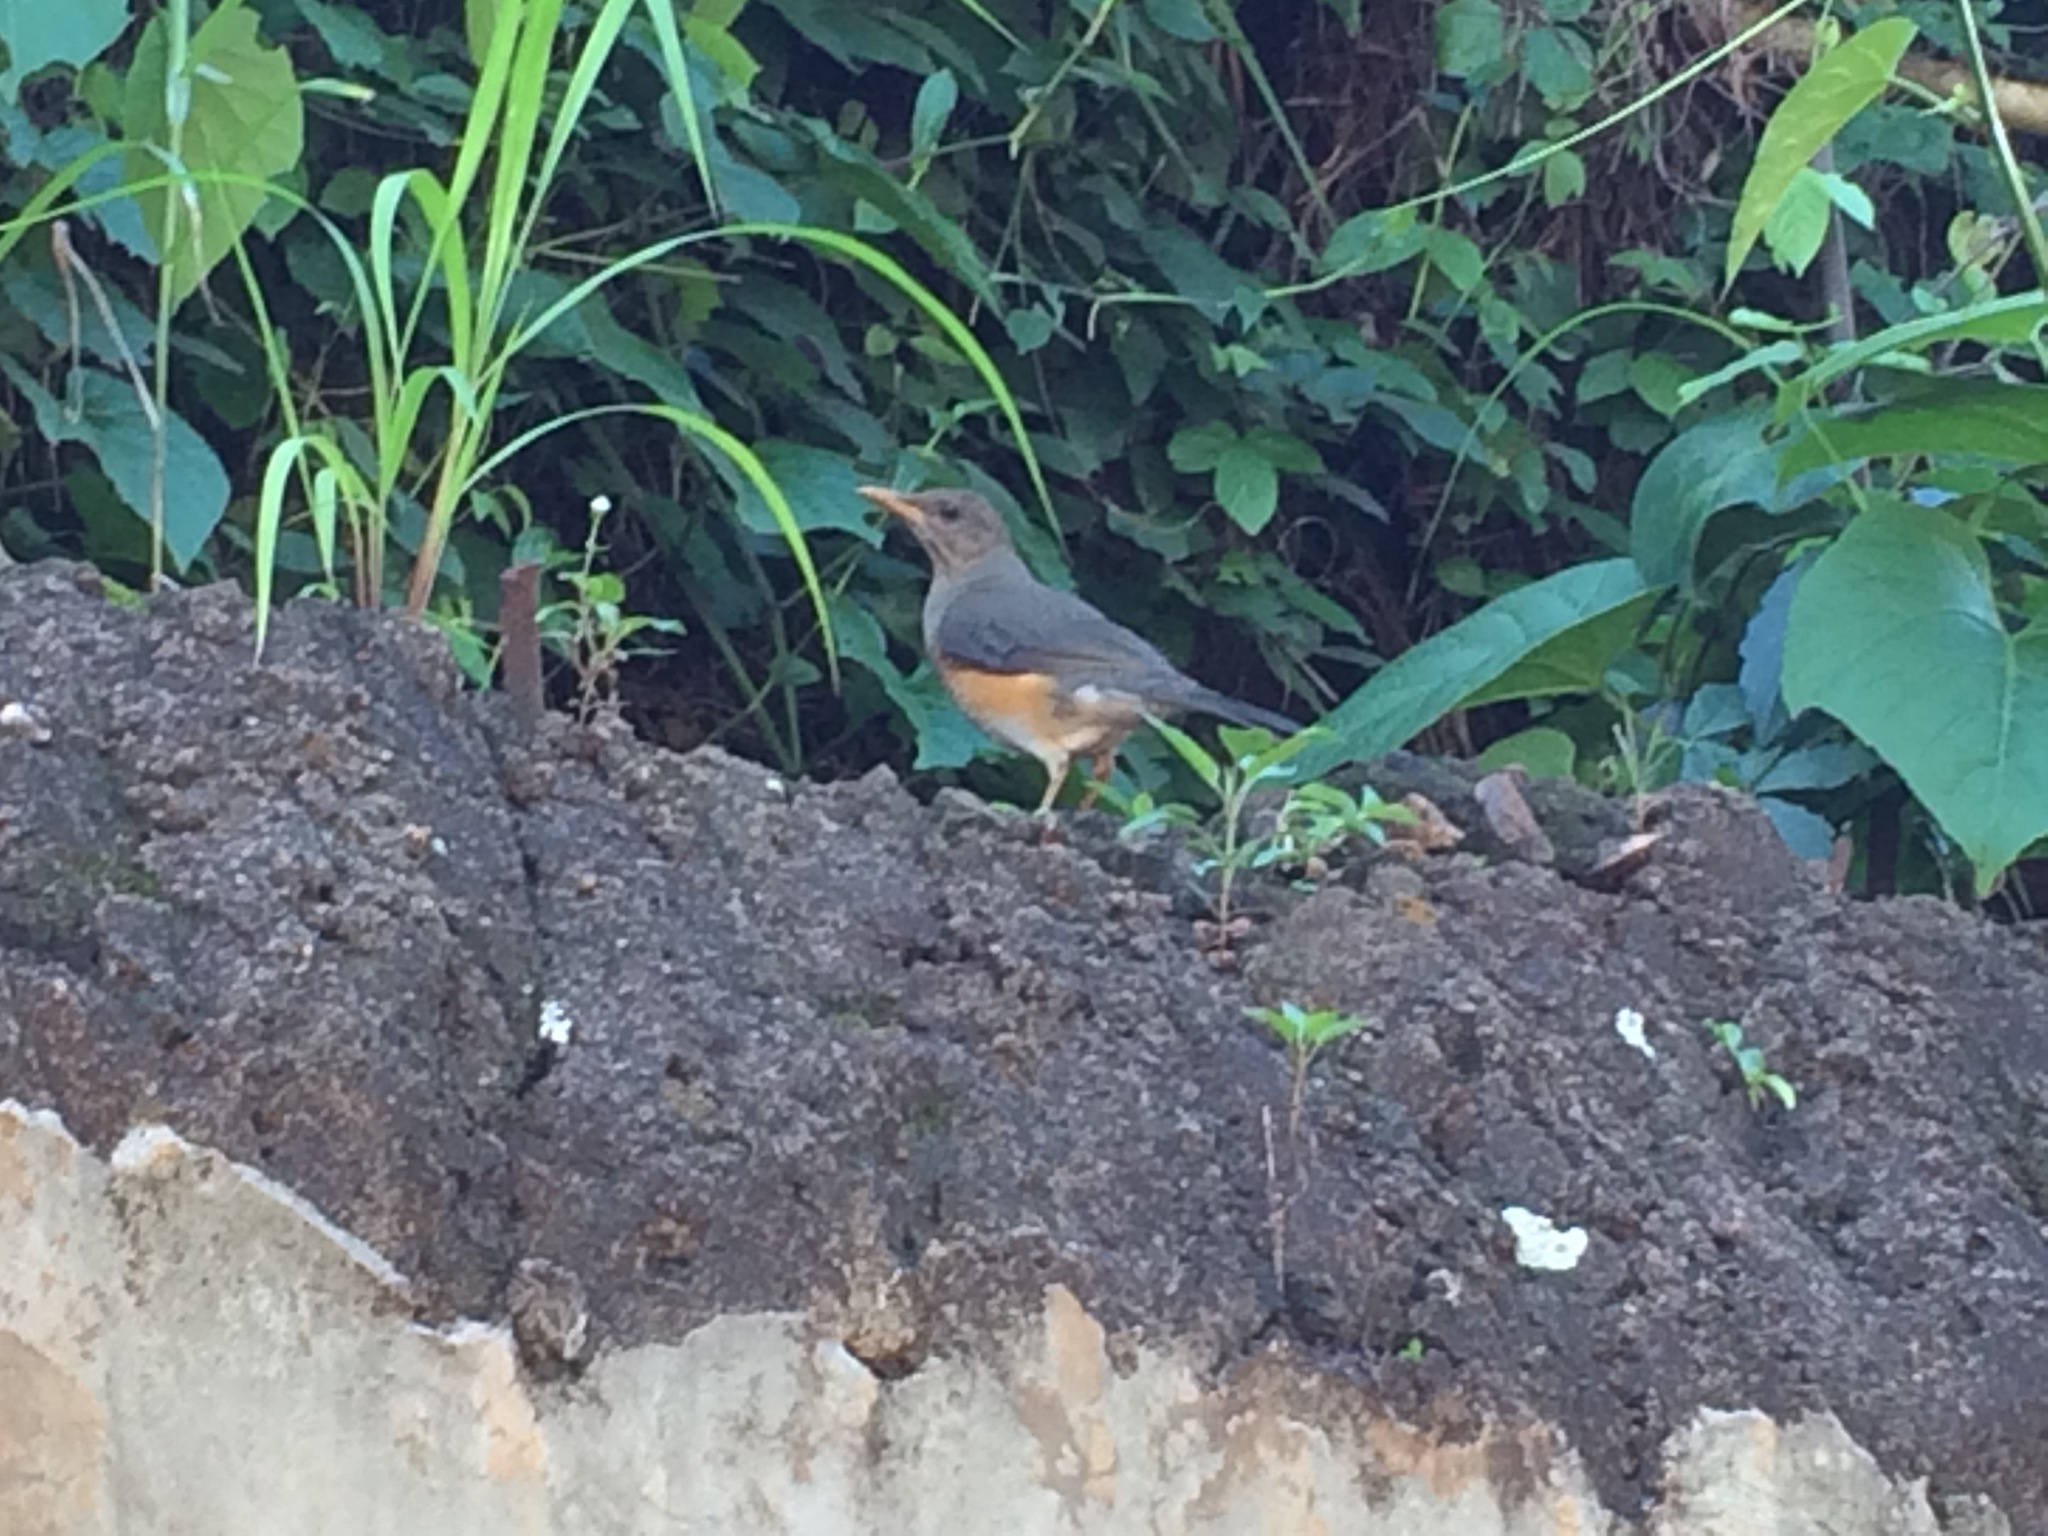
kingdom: Animalia
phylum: Chordata
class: Aves
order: Passeriformes
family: Turdidae
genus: Turdus
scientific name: Turdus pelios
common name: African thrush
